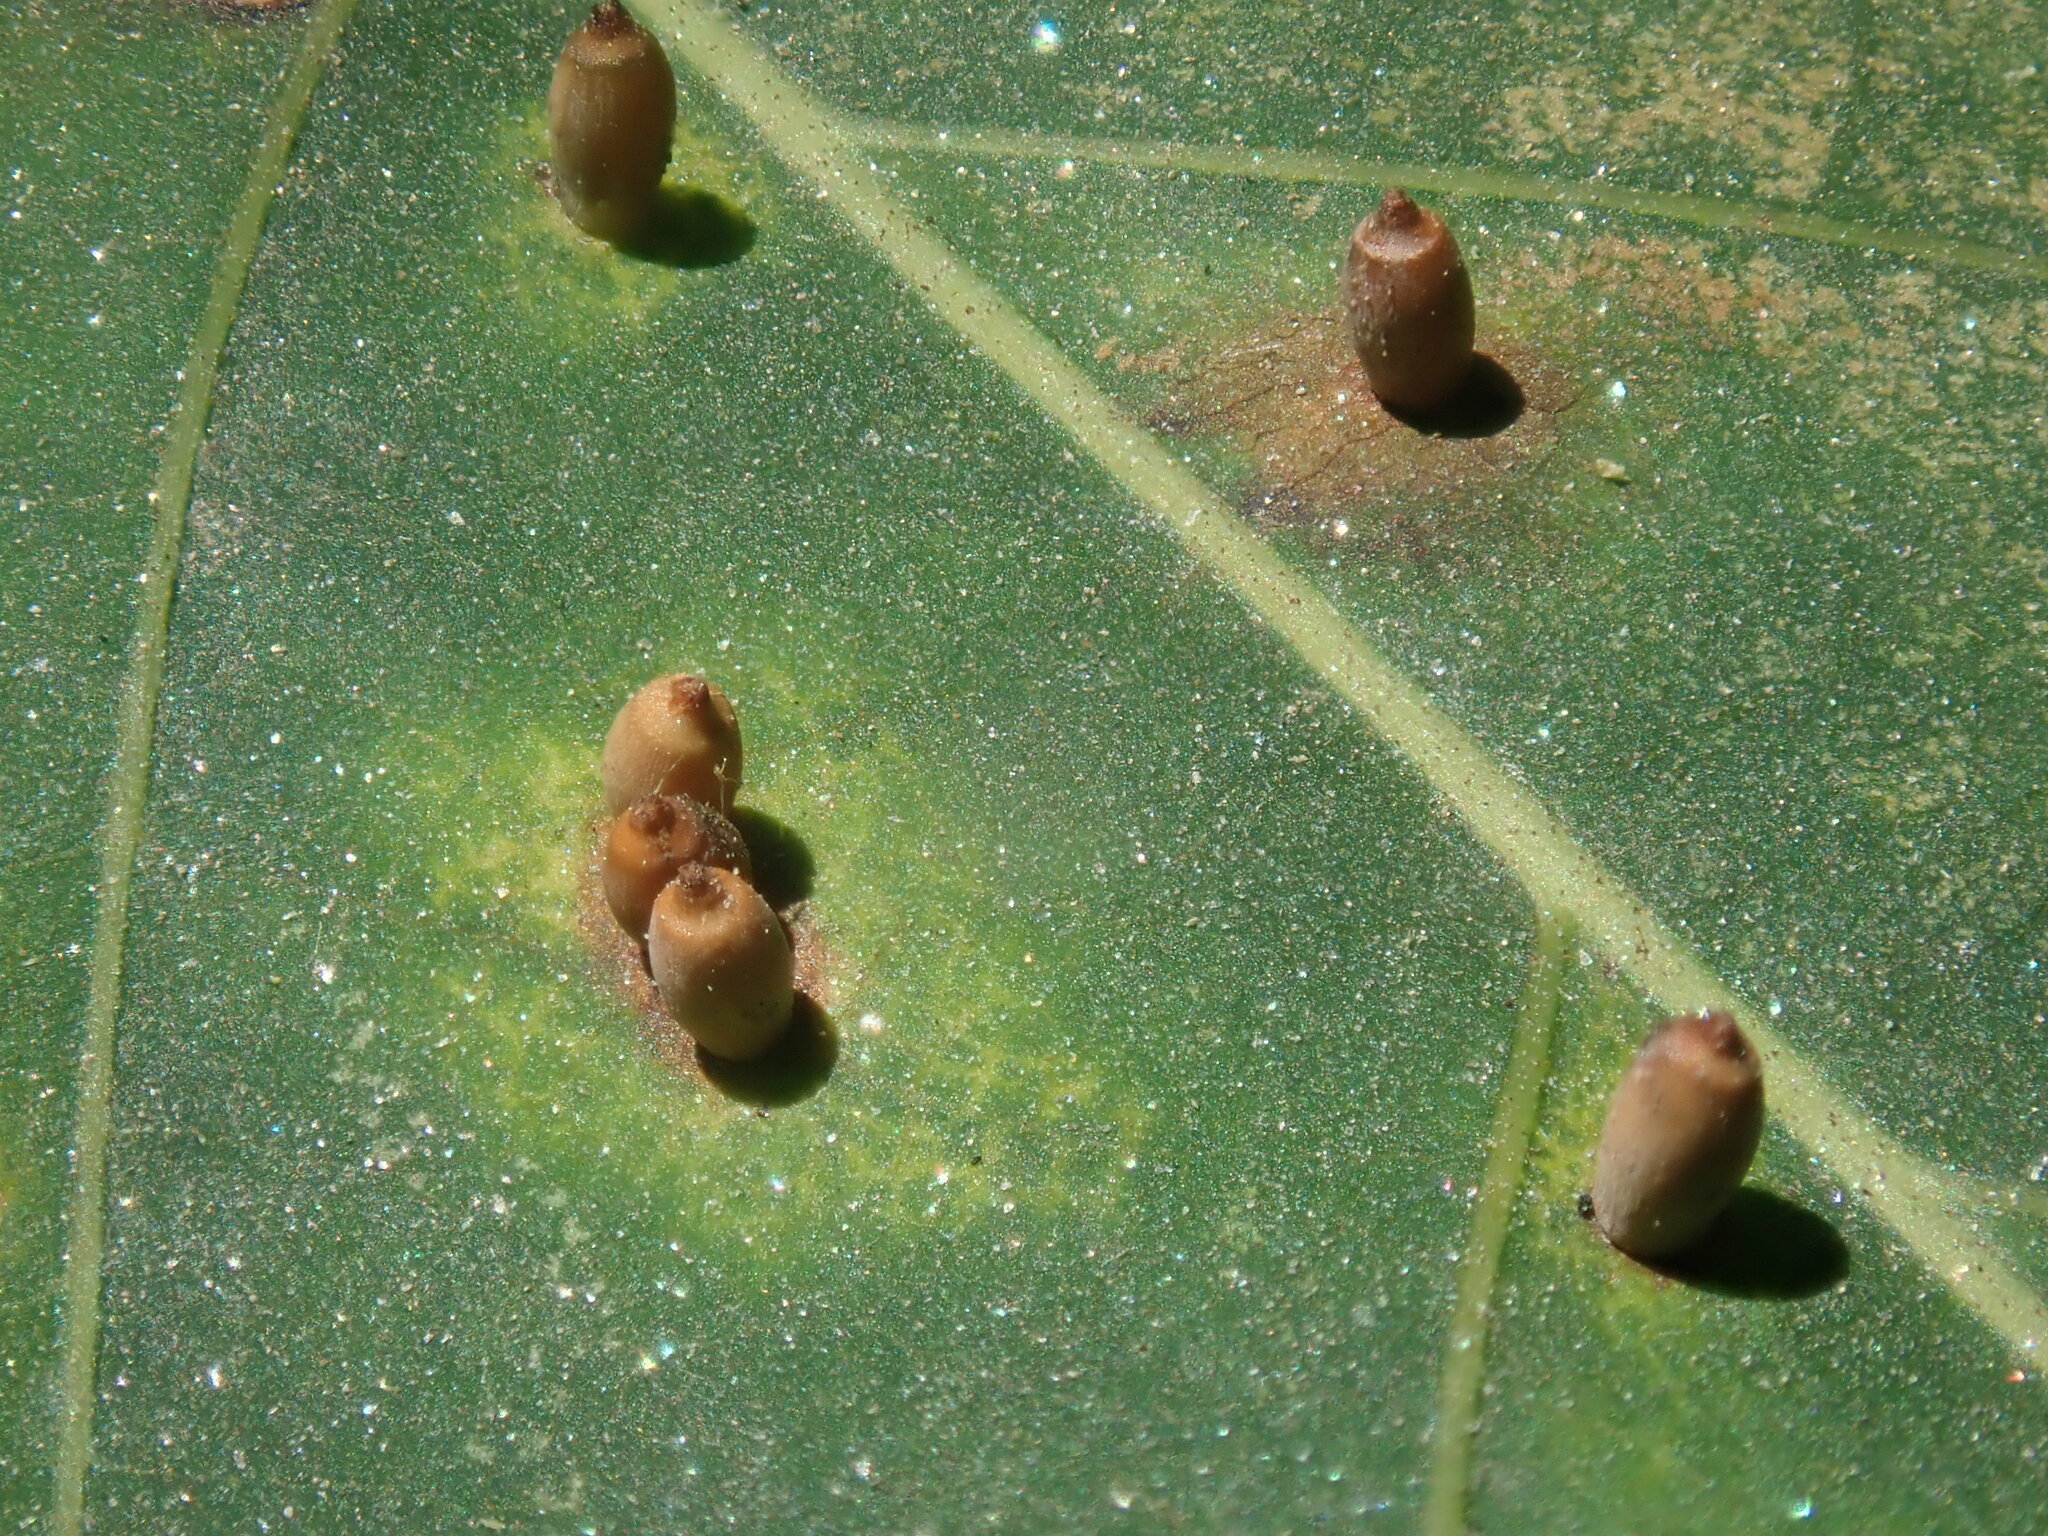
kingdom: Animalia
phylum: Arthropoda
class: Insecta
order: Diptera
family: Cecidomyiidae
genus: Caryomyia
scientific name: Caryomyia urnula
